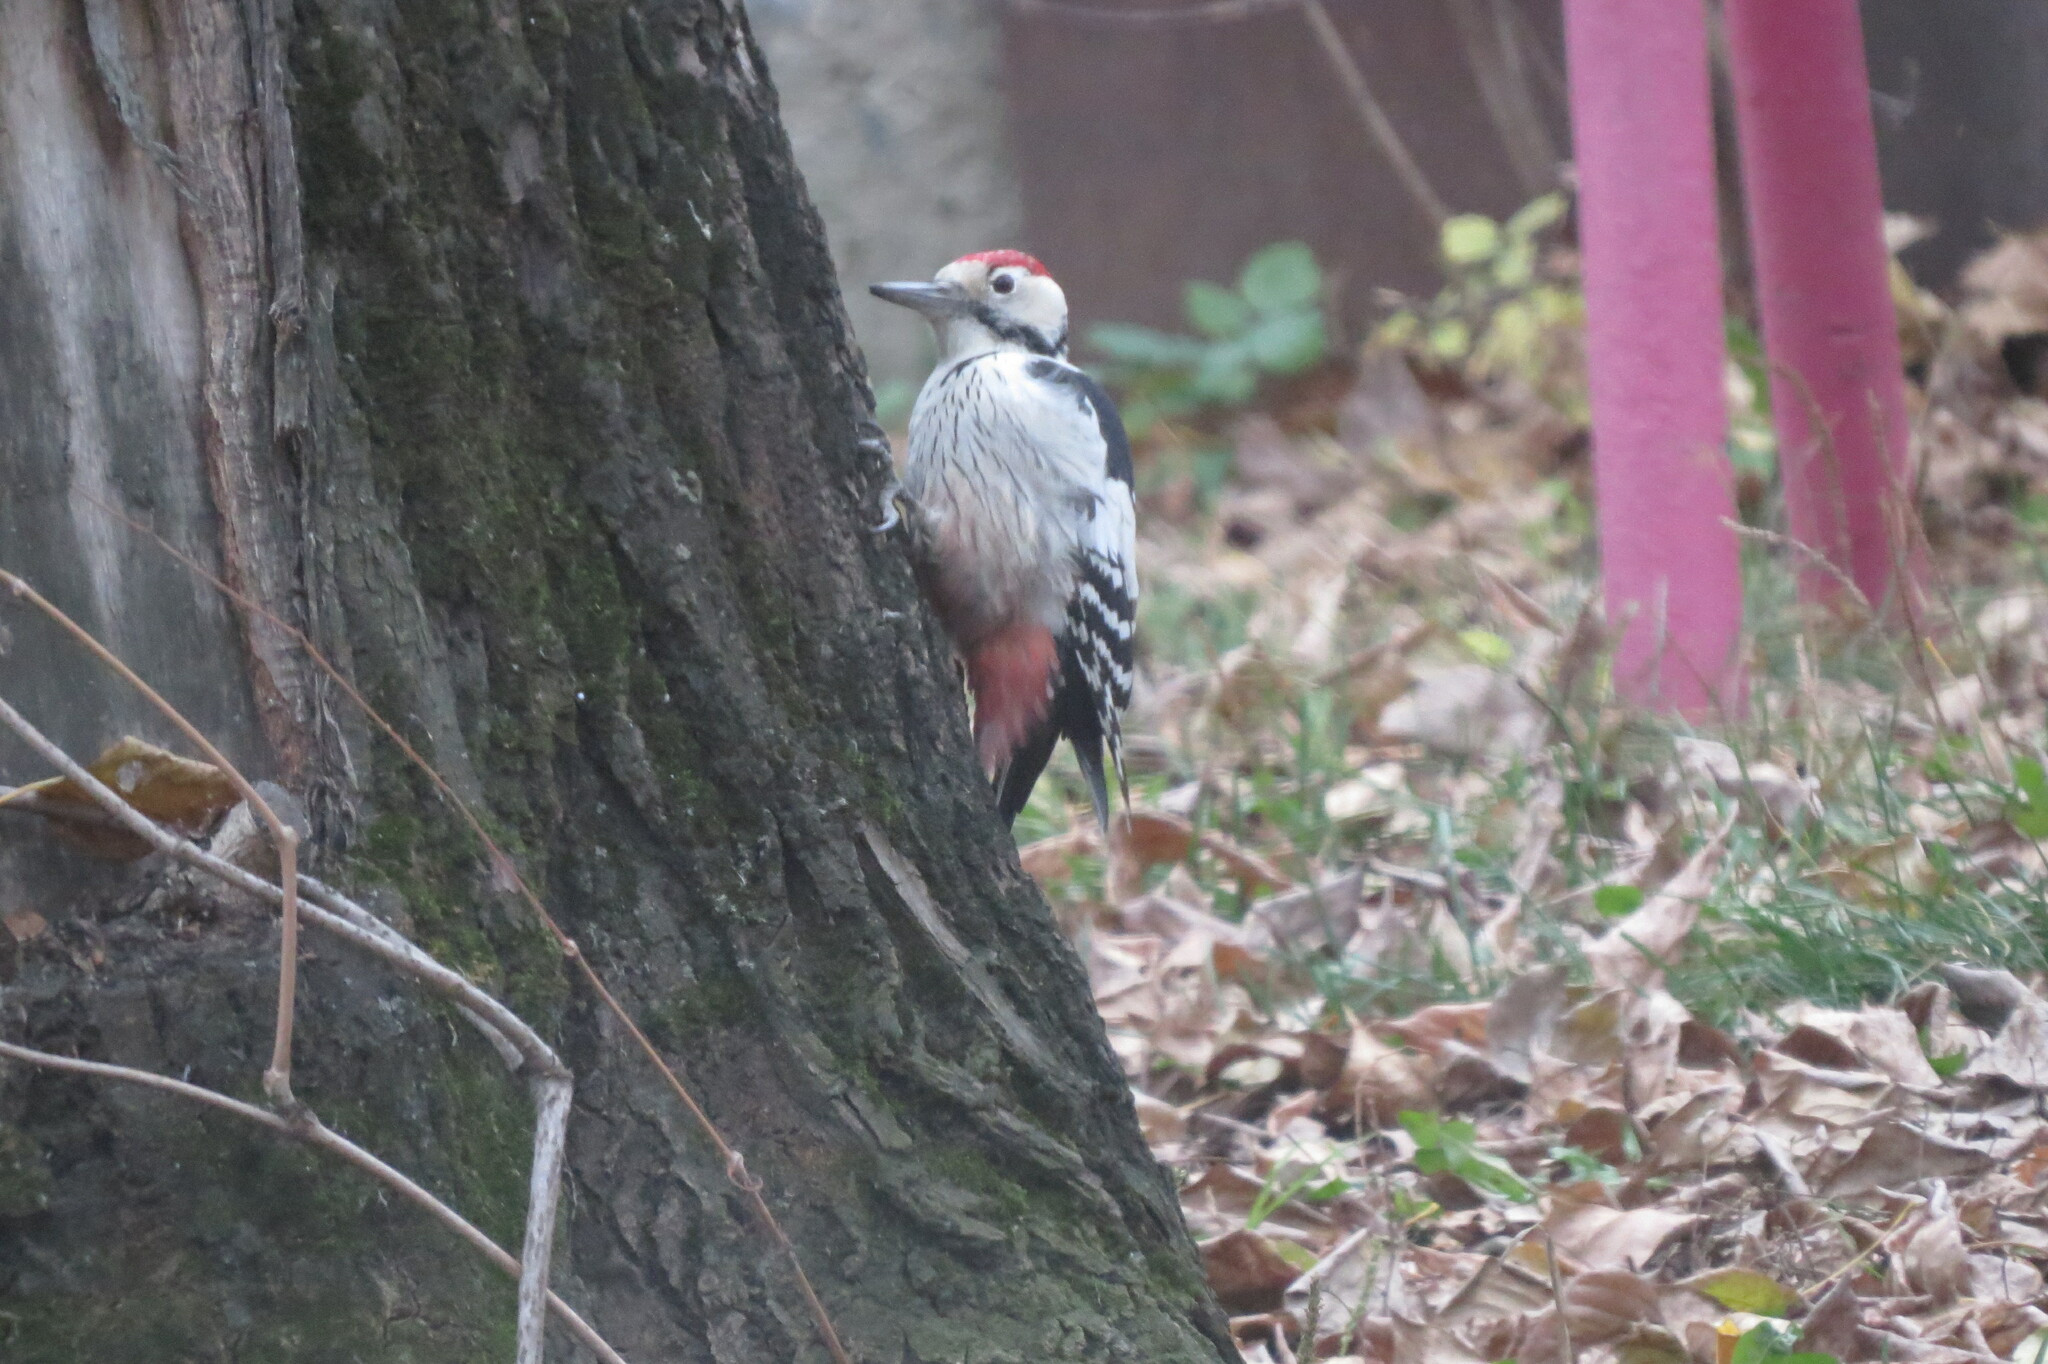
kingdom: Animalia
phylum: Chordata
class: Aves
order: Piciformes
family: Picidae
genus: Dendrocopos
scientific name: Dendrocopos leucotos
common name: White-backed woodpecker
